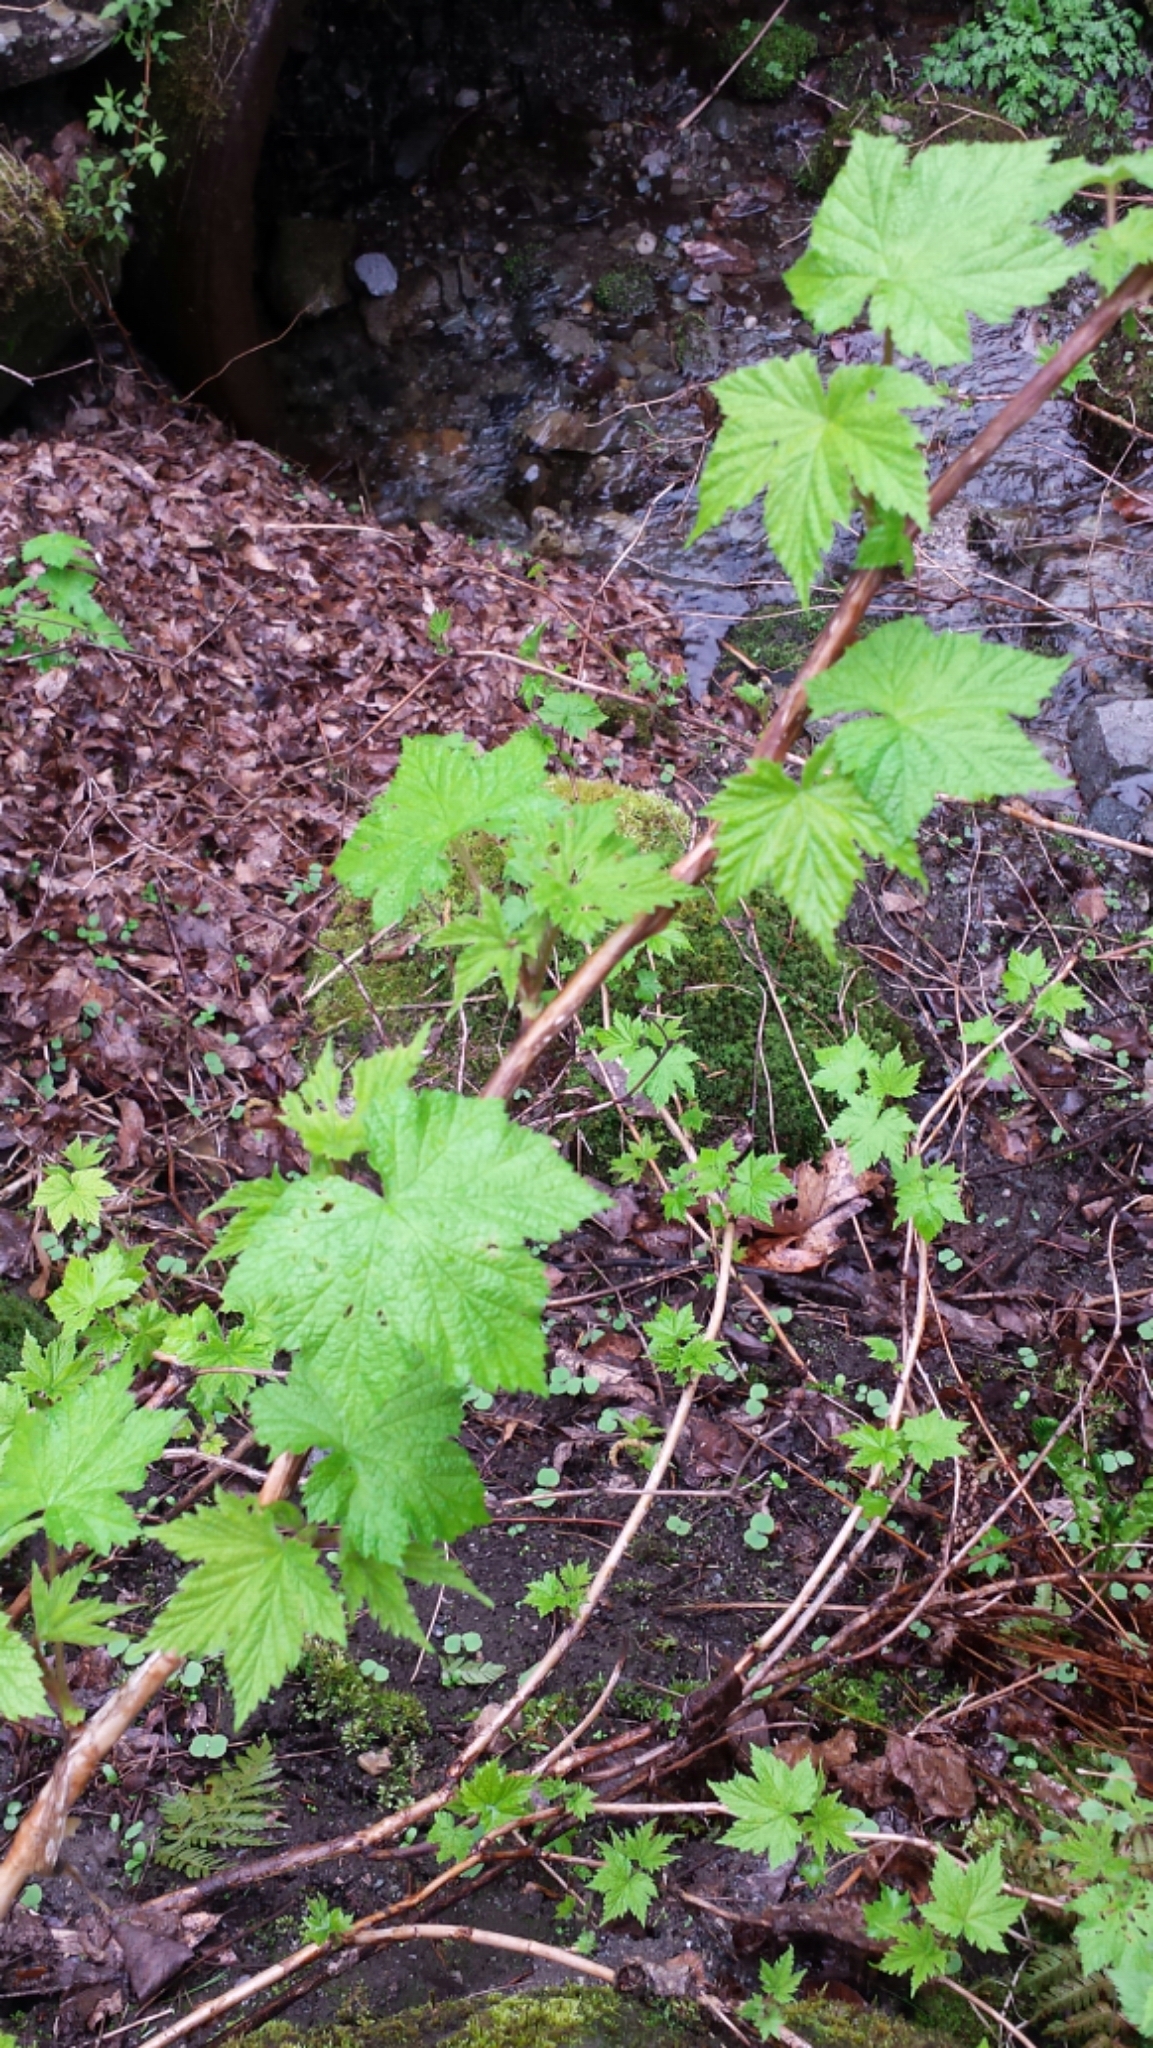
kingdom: Plantae
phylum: Tracheophyta
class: Magnoliopsida
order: Rosales
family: Rosaceae
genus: Rubus
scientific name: Rubus odoratus
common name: Purple-flowered raspberry
